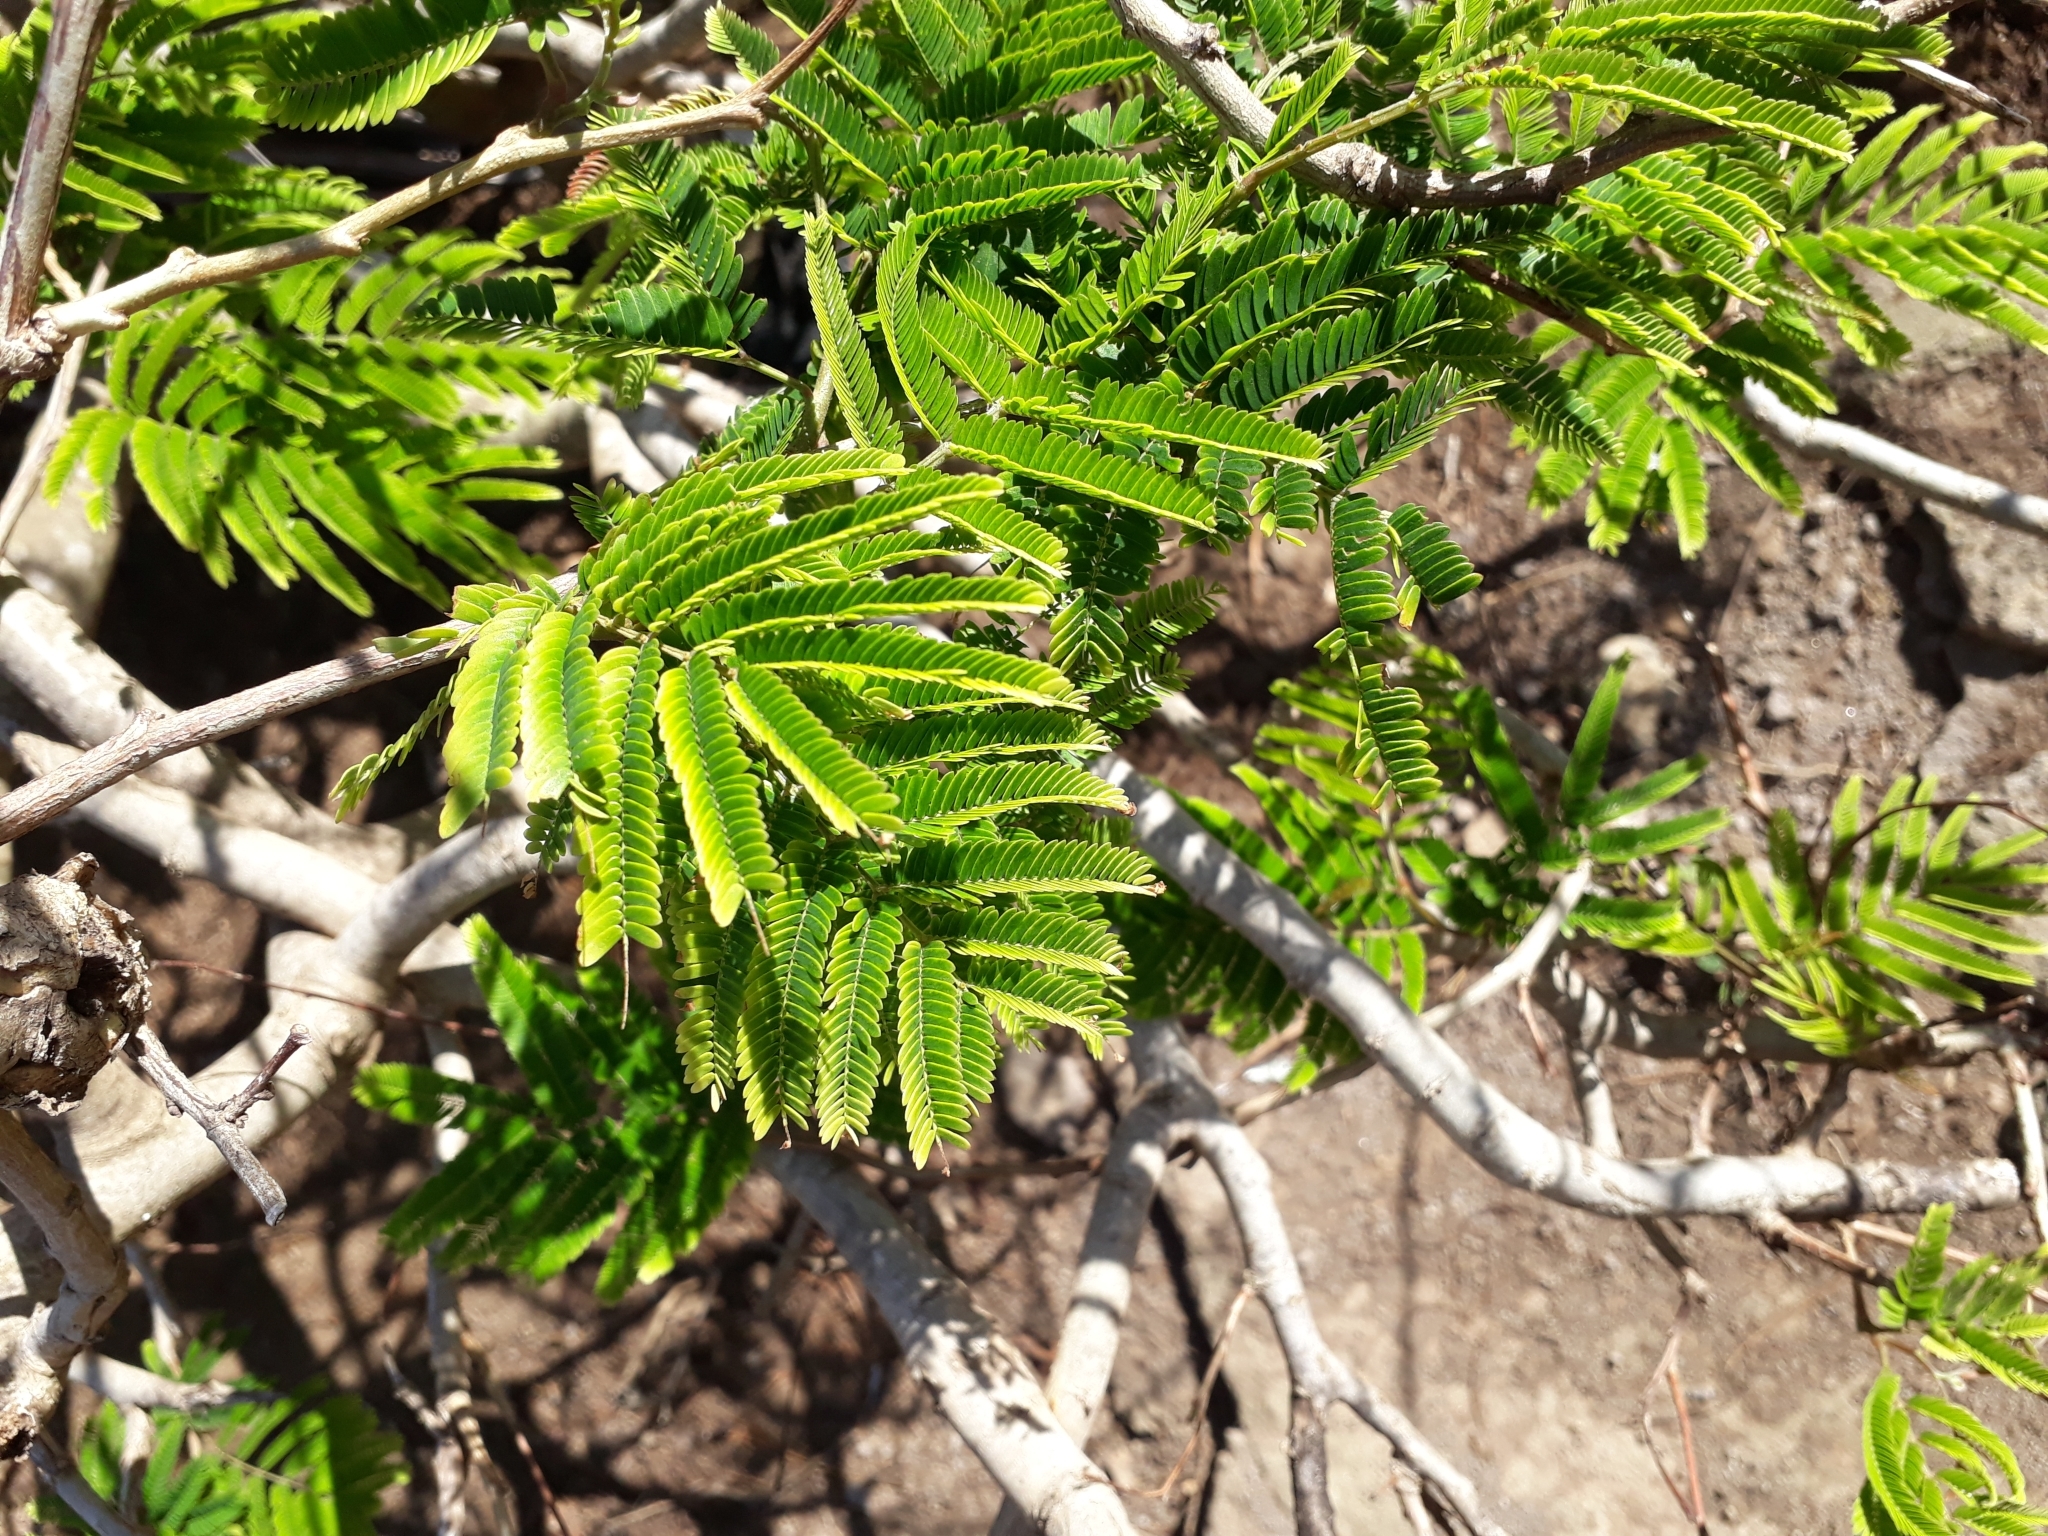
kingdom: Plantae
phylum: Tracheophyta
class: Magnoliopsida
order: Fabales
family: Fabaceae
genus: Gagnebina
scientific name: Gagnebina pterocarpa
